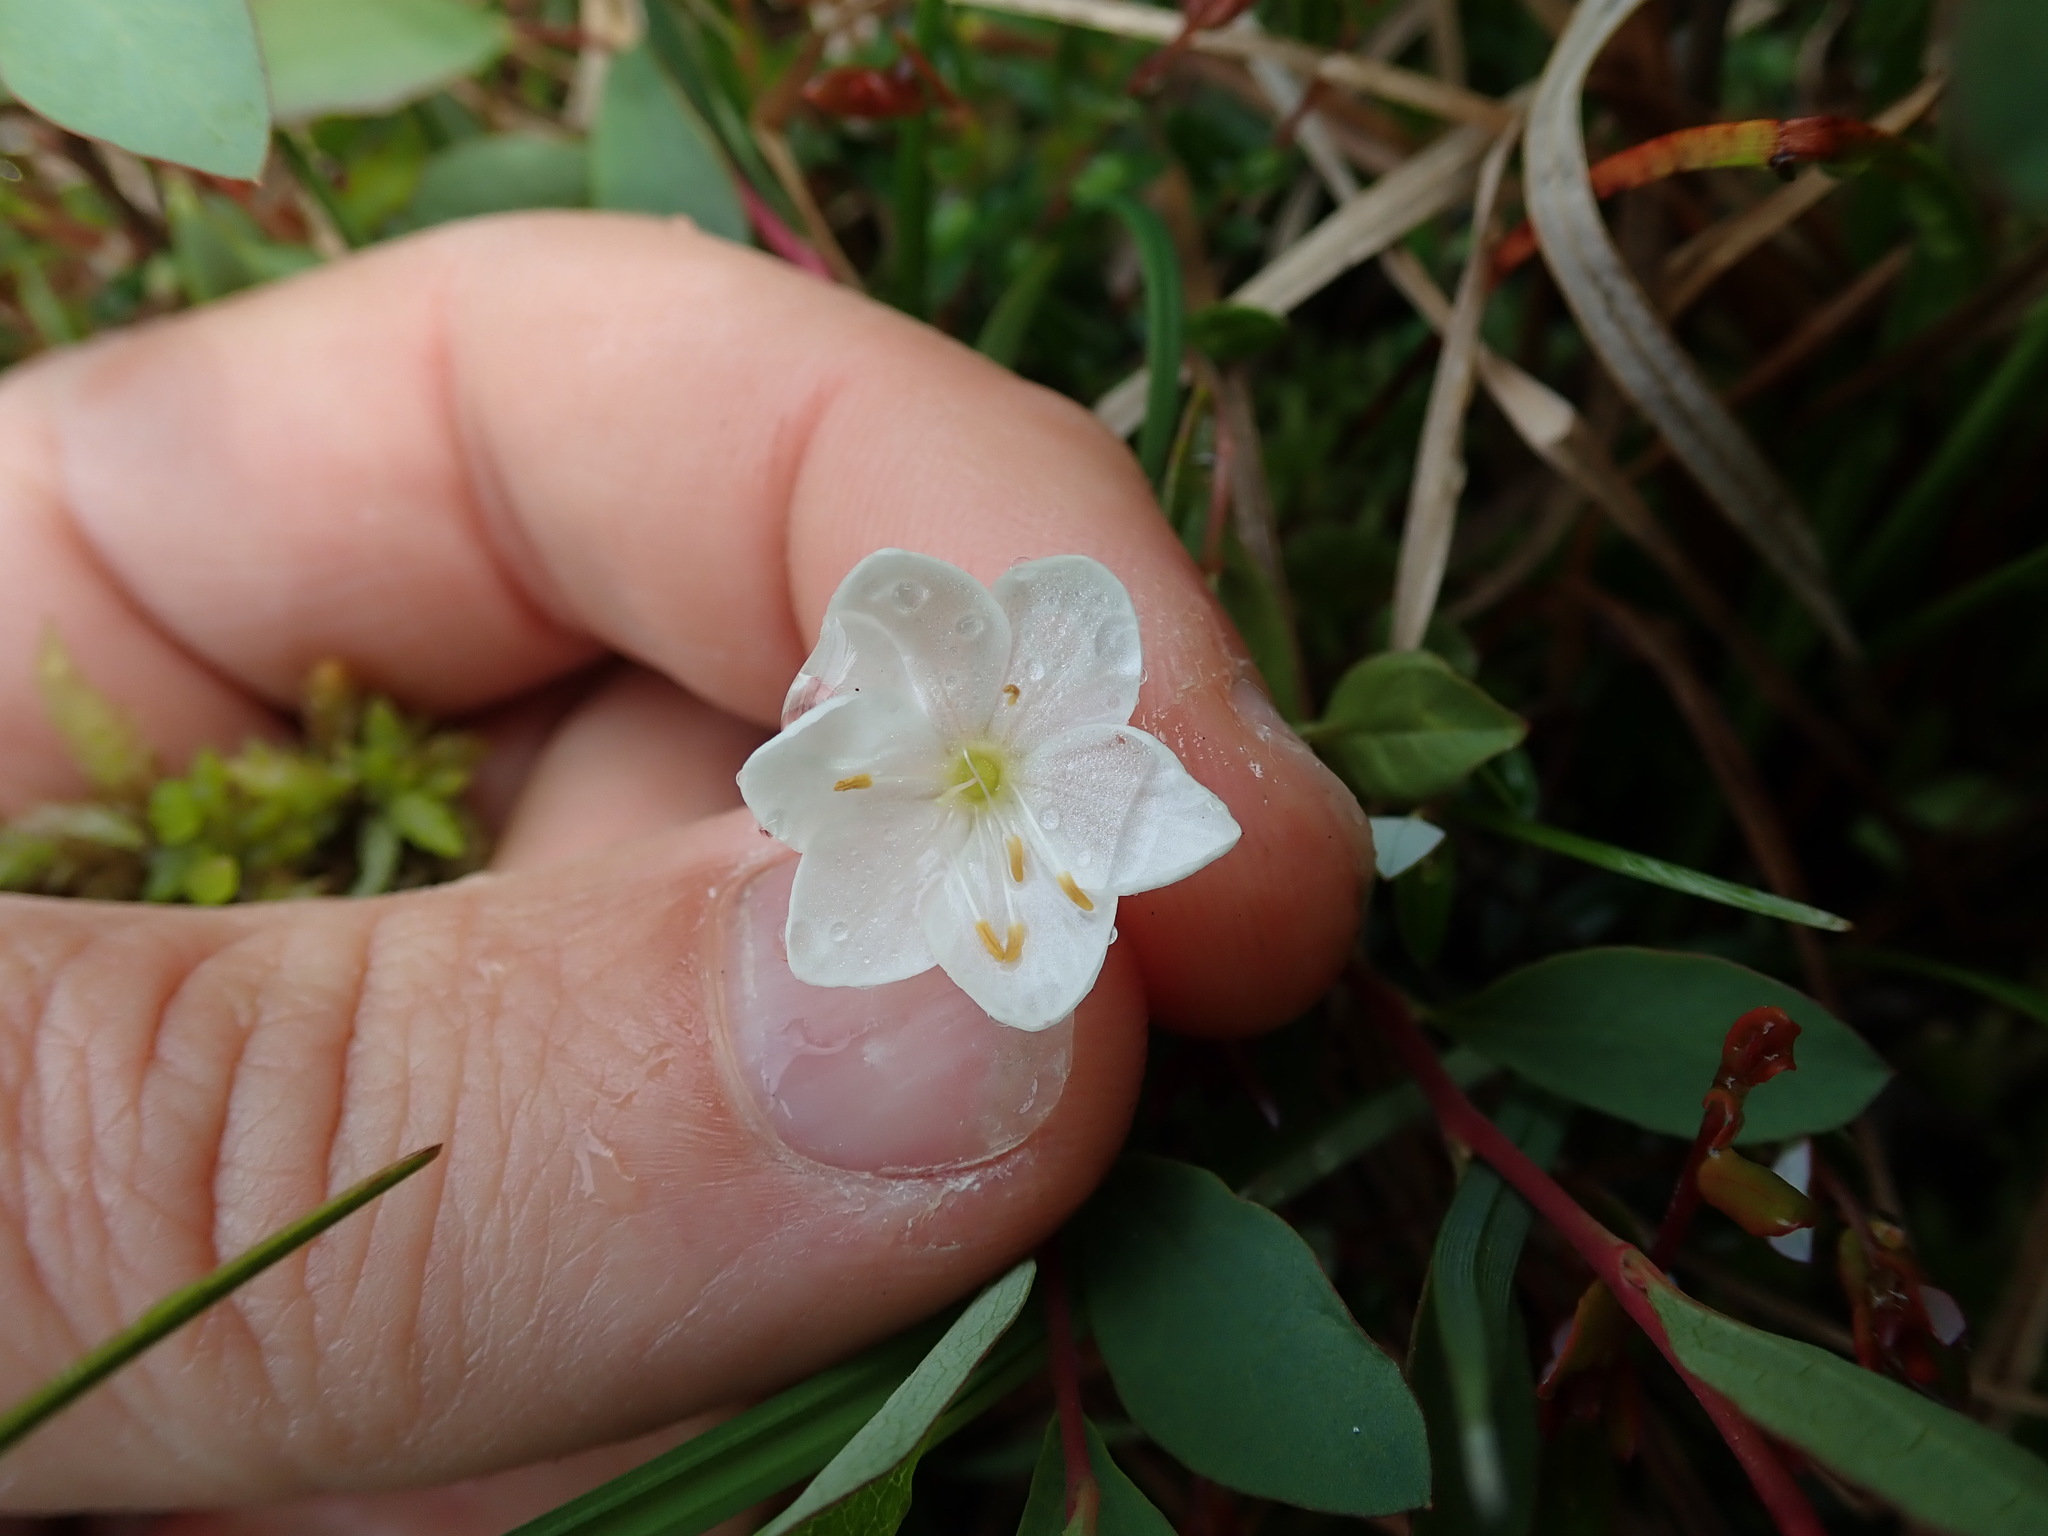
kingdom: Plantae
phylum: Tracheophyta
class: Magnoliopsida
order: Ericales
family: Primulaceae
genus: Lysimachia
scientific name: Lysimachia europaea
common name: Arctic starflower
